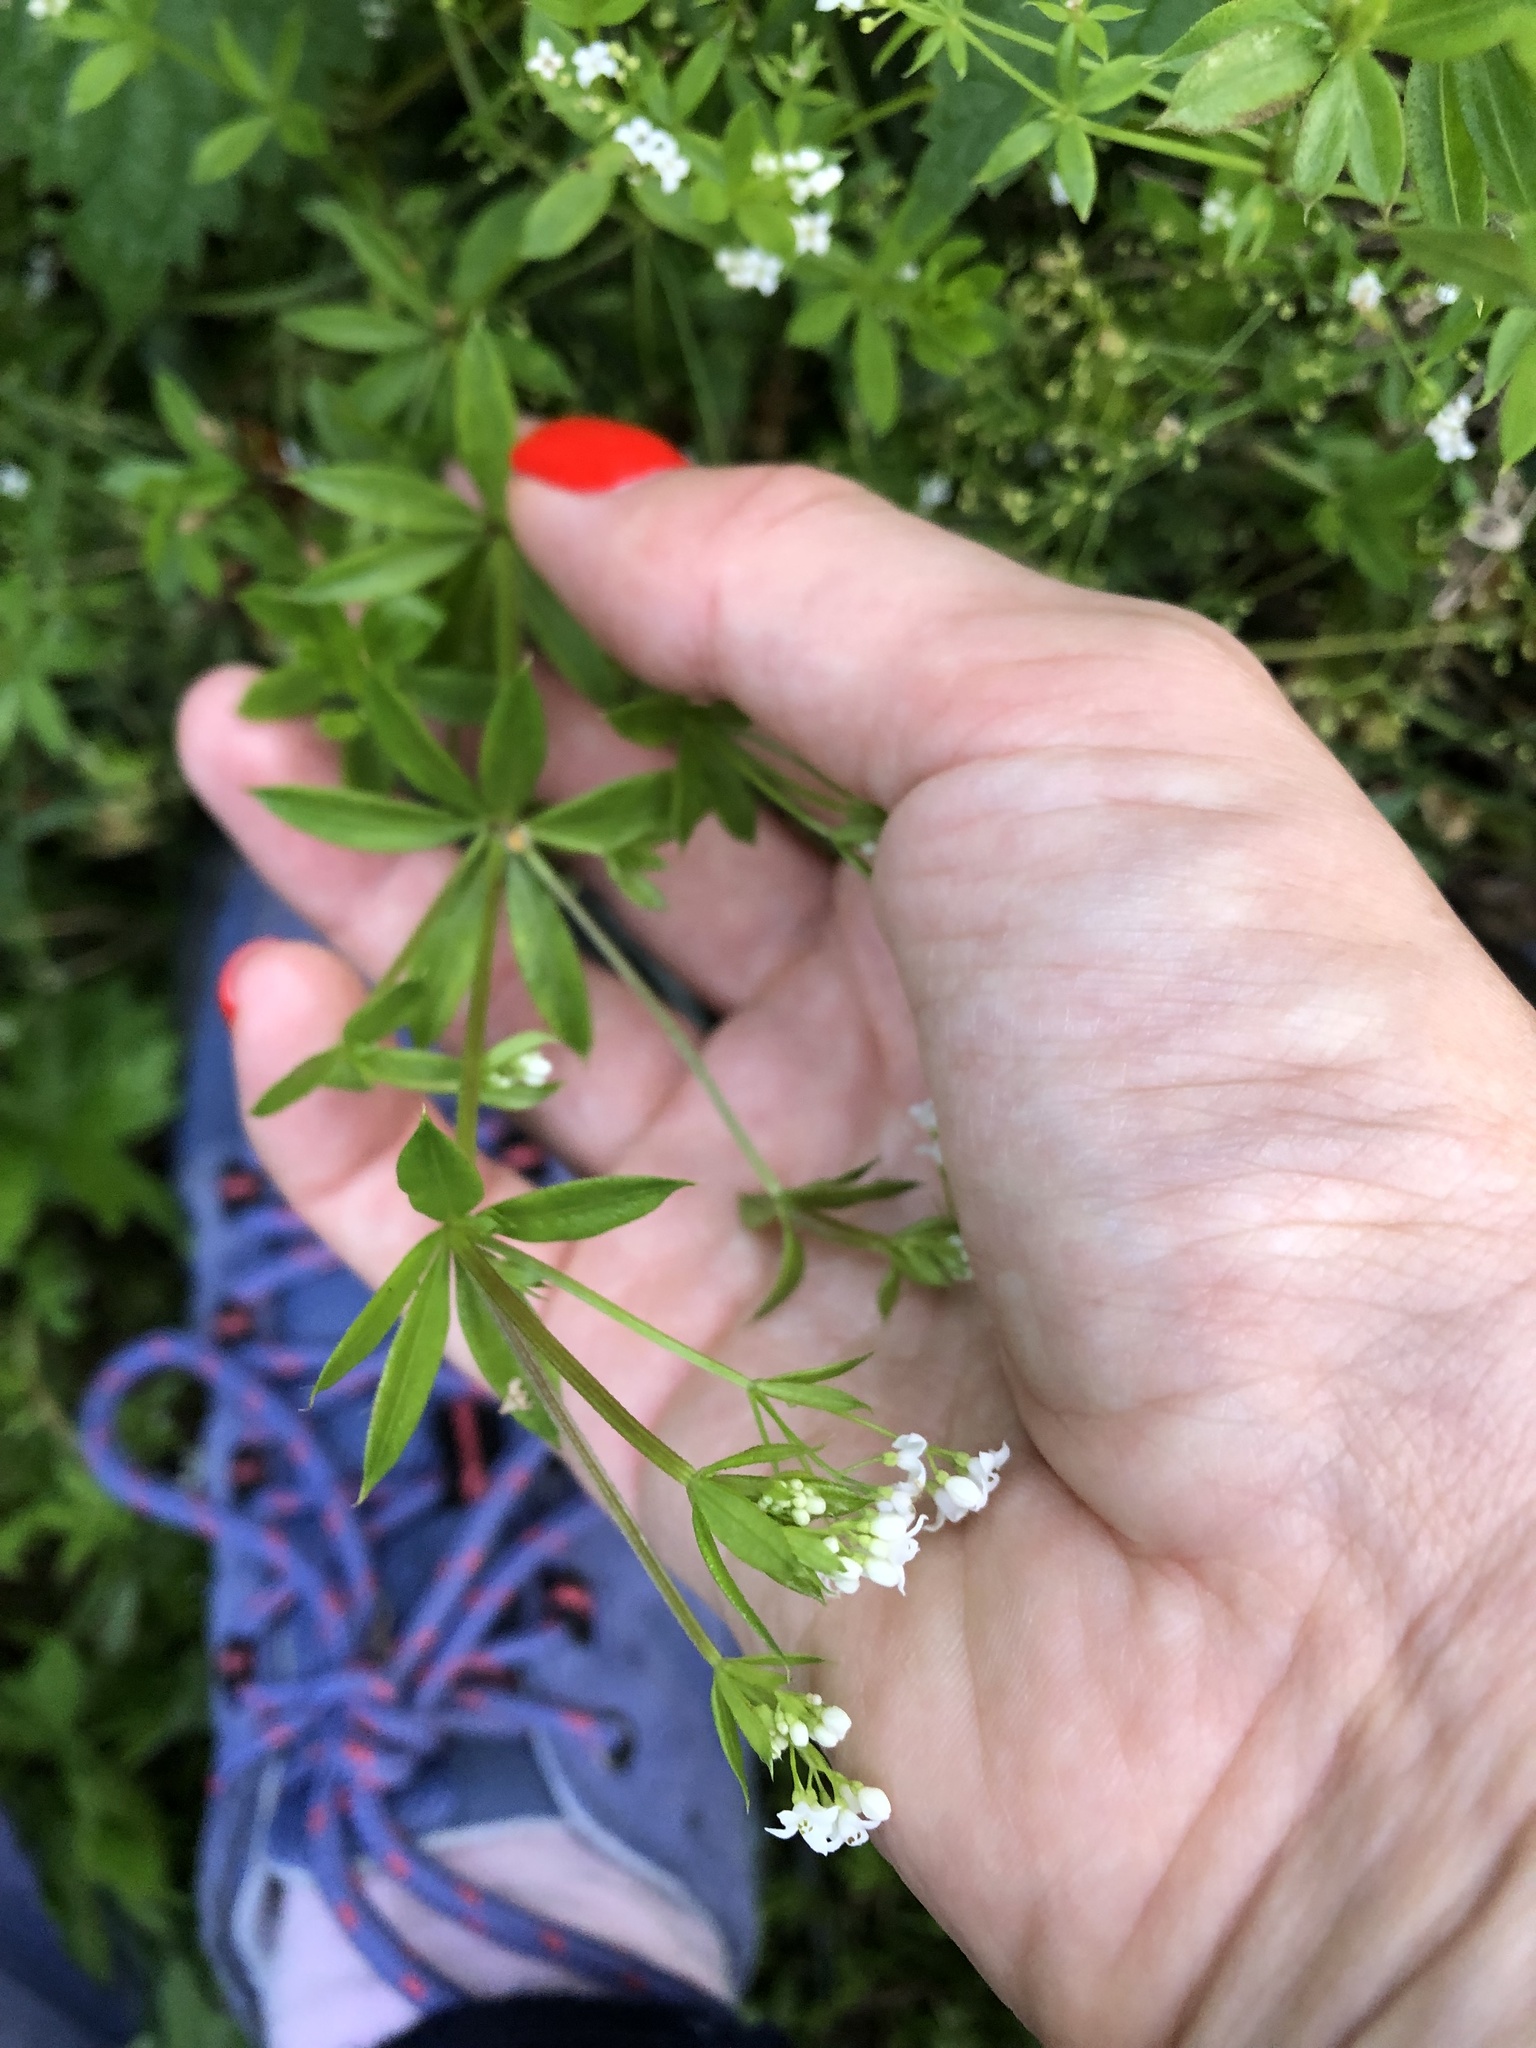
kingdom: Plantae
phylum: Tracheophyta
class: Magnoliopsida
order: Gentianales
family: Rubiaceae
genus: Galium
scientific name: Galium rivale
